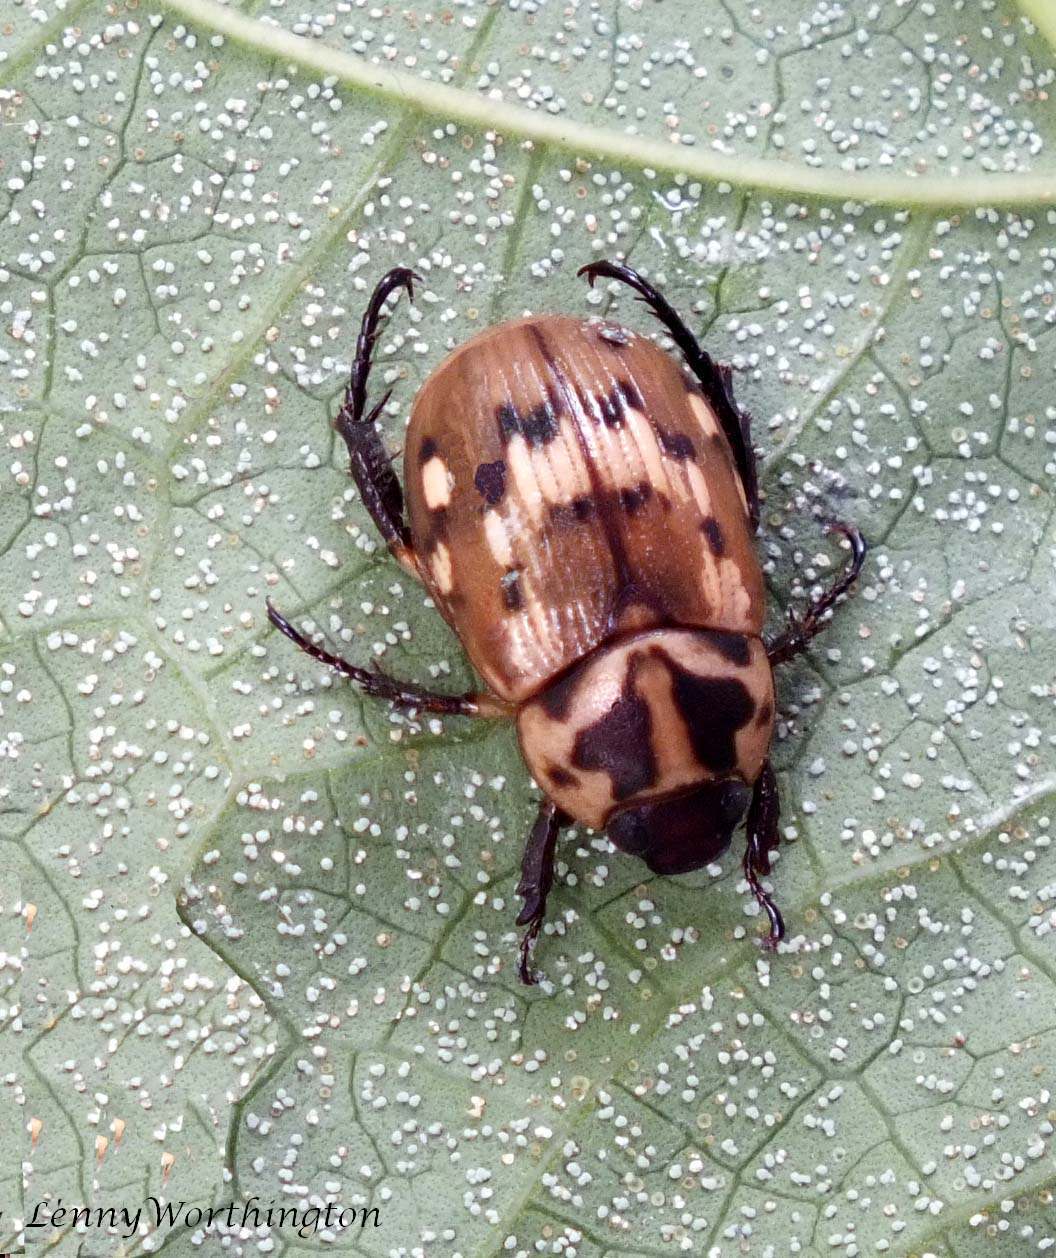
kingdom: Animalia
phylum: Arthropoda
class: Insecta
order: Coleoptera
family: Scarabaeidae
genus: Anomala
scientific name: Anomala blaisei
